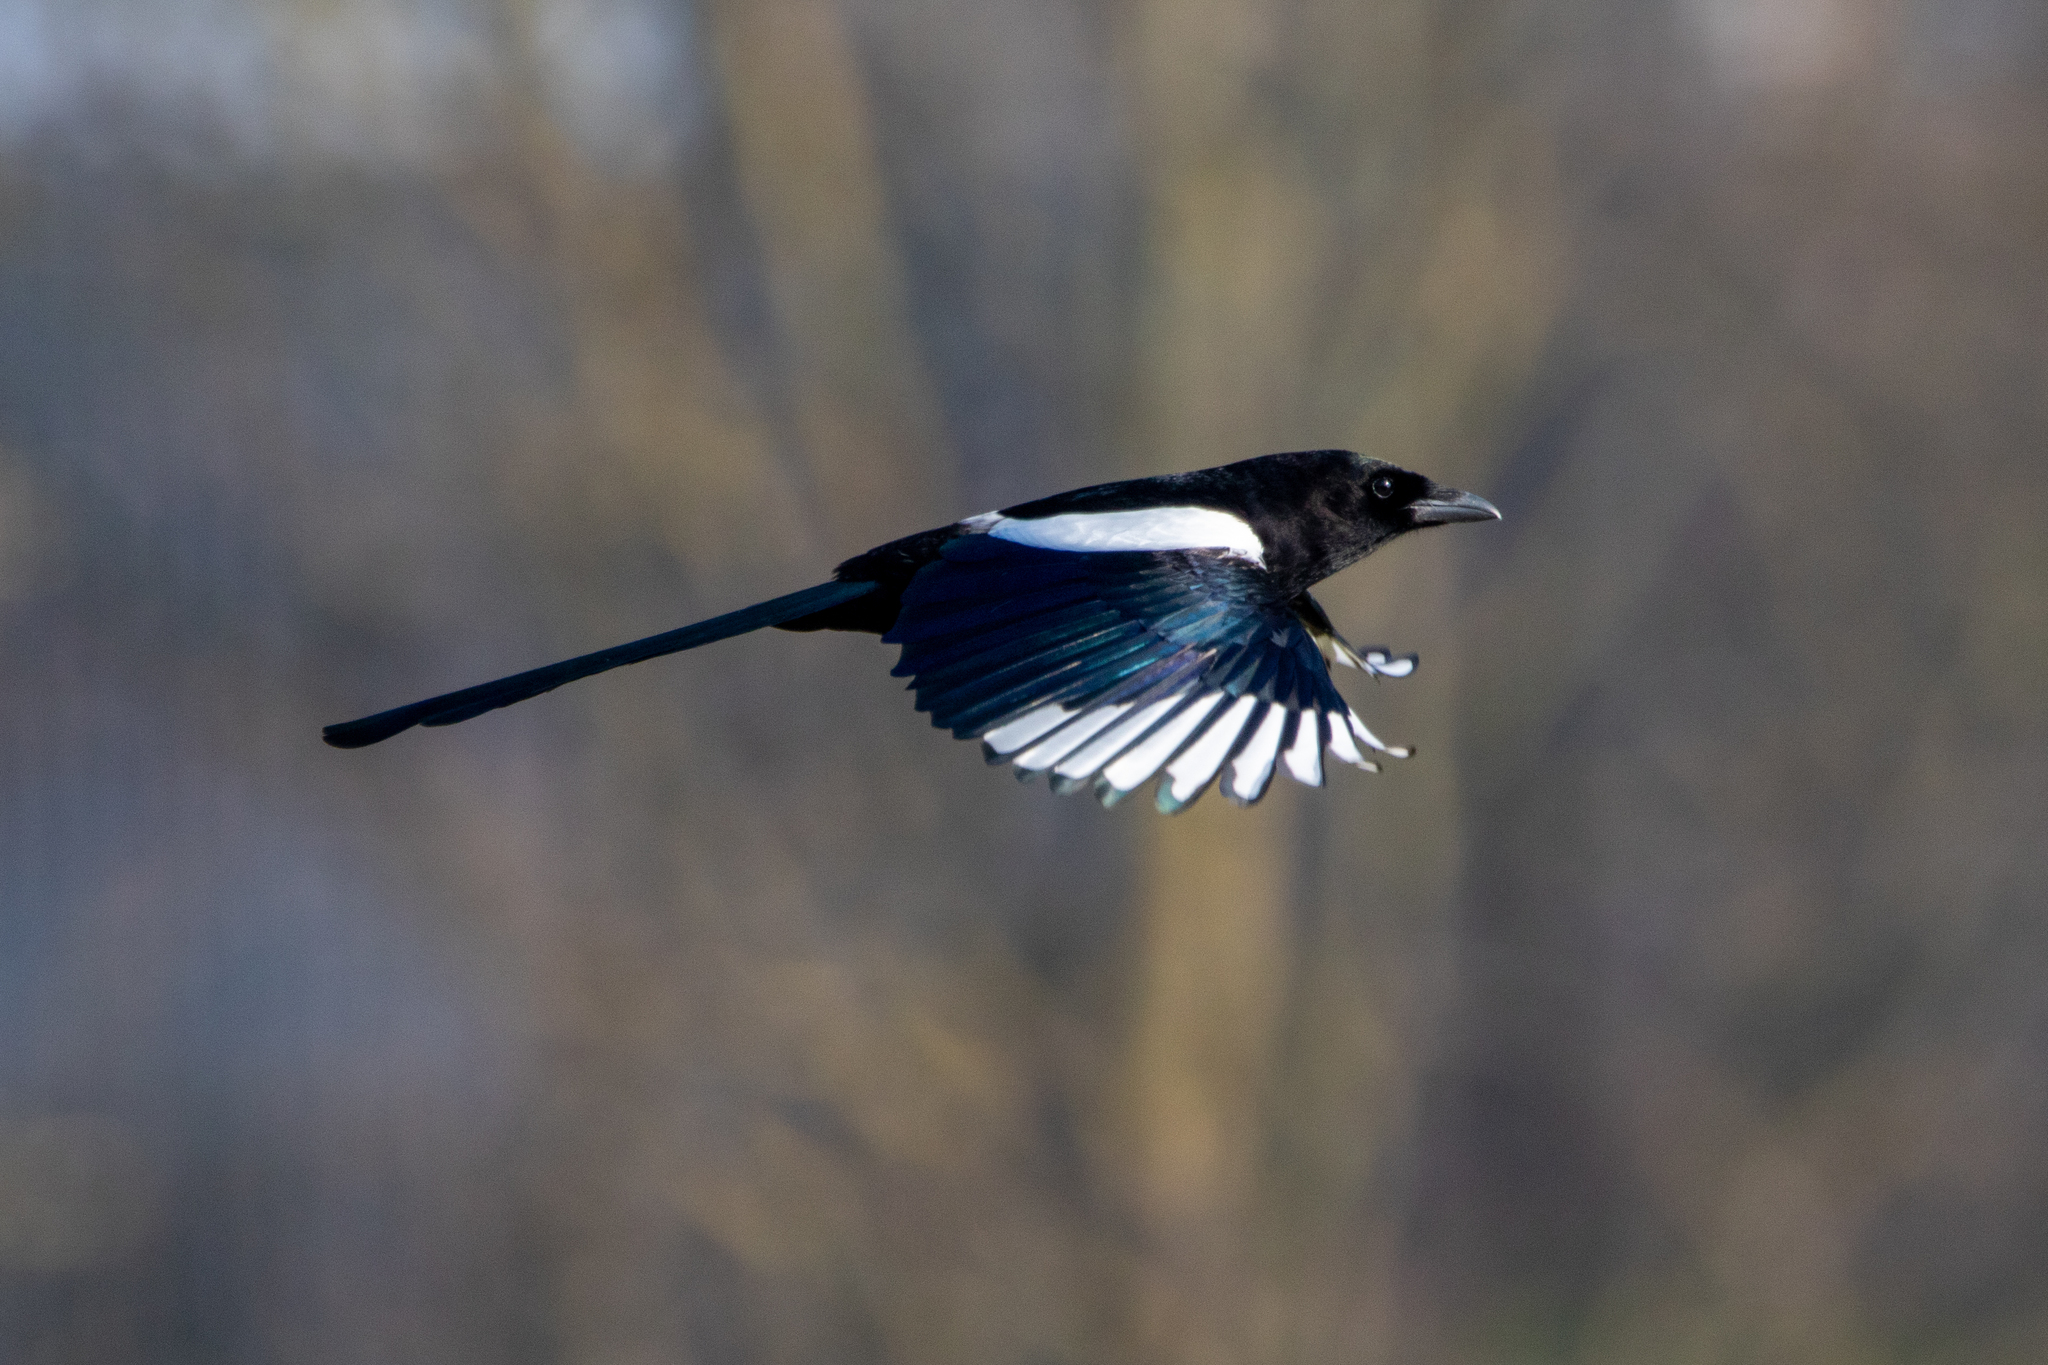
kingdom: Animalia
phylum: Chordata
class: Aves
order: Passeriformes
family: Corvidae
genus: Pica
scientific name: Pica pica
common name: Eurasian magpie
